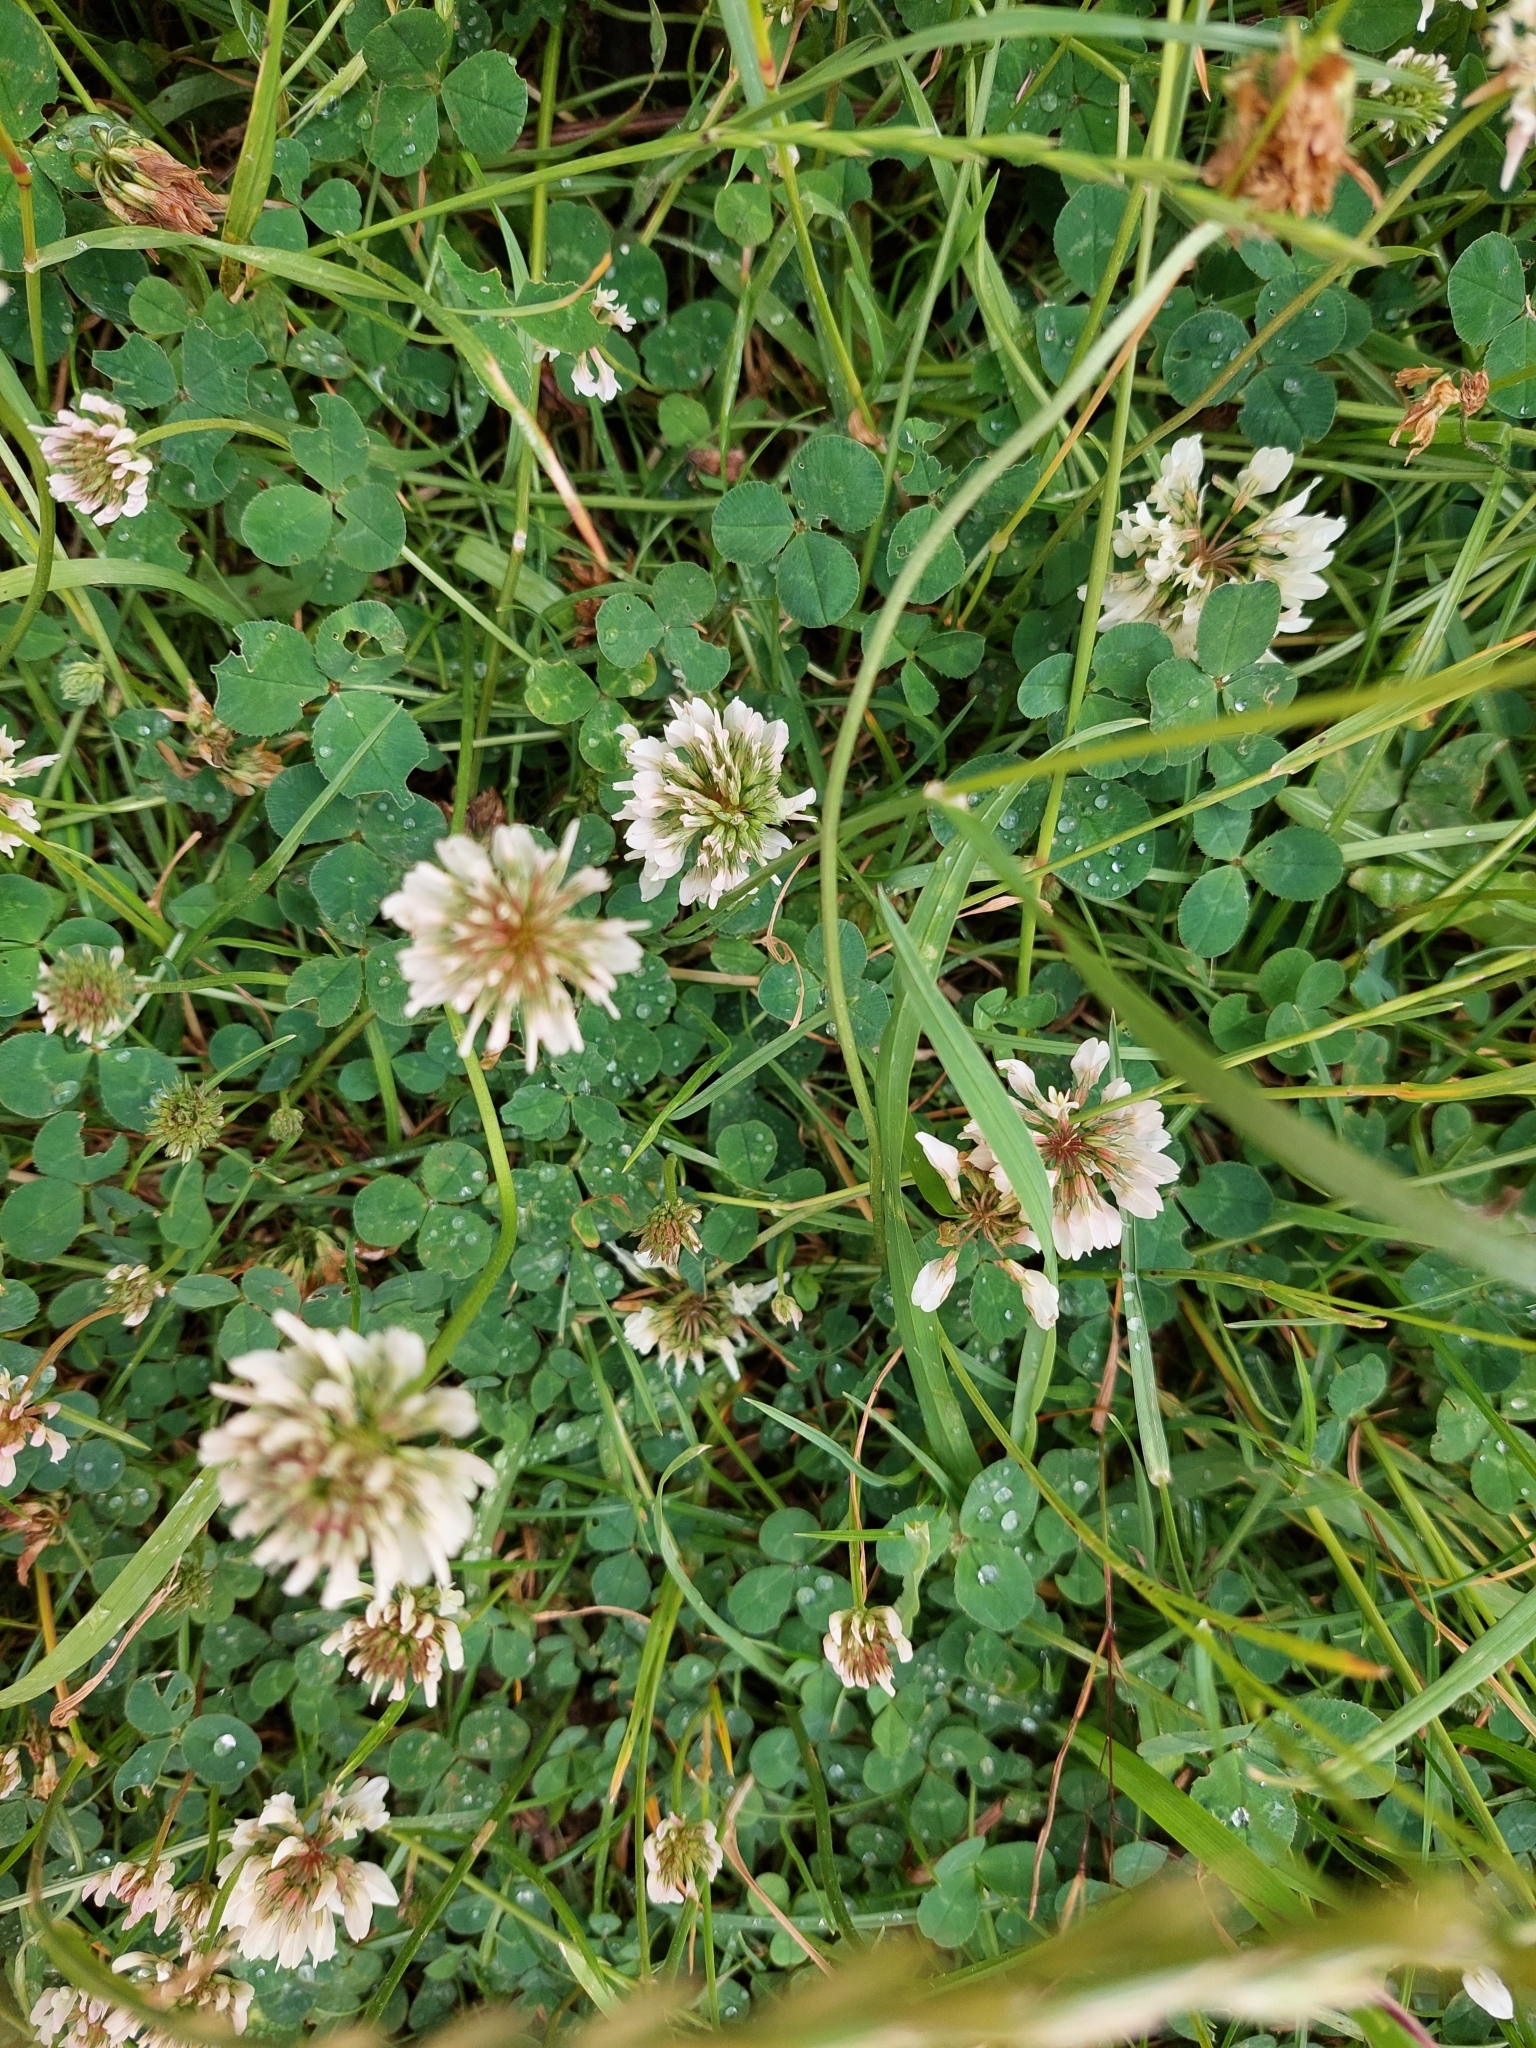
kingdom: Plantae
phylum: Tracheophyta
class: Magnoliopsida
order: Fabales
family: Fabaceae
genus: Trifolium
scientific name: Trifolium repens
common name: White clover
